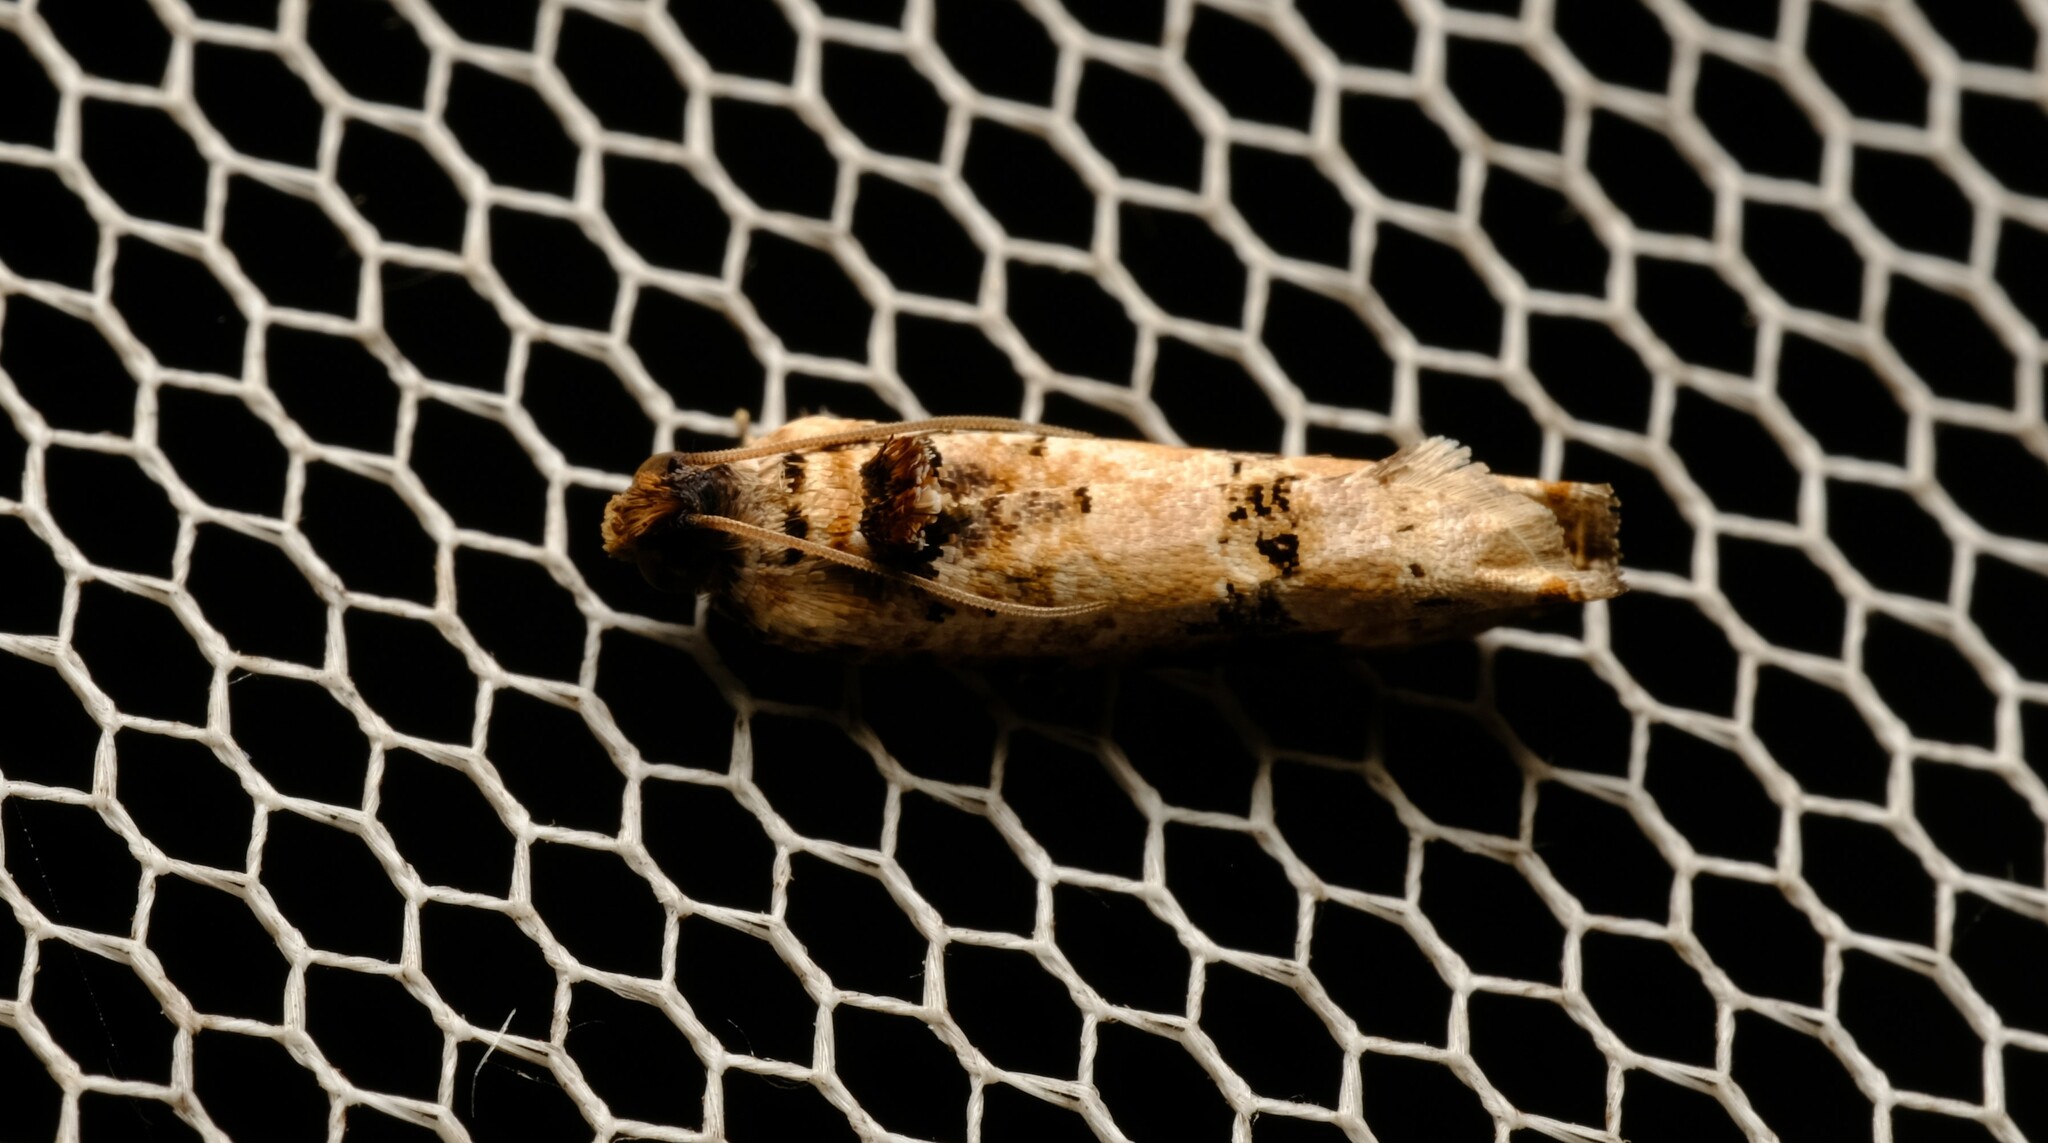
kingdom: Animalia
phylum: Arthropoda
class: Insecta
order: Lepidoptera
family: Tortricidae
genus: Dudua
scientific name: Dudua aprobola
